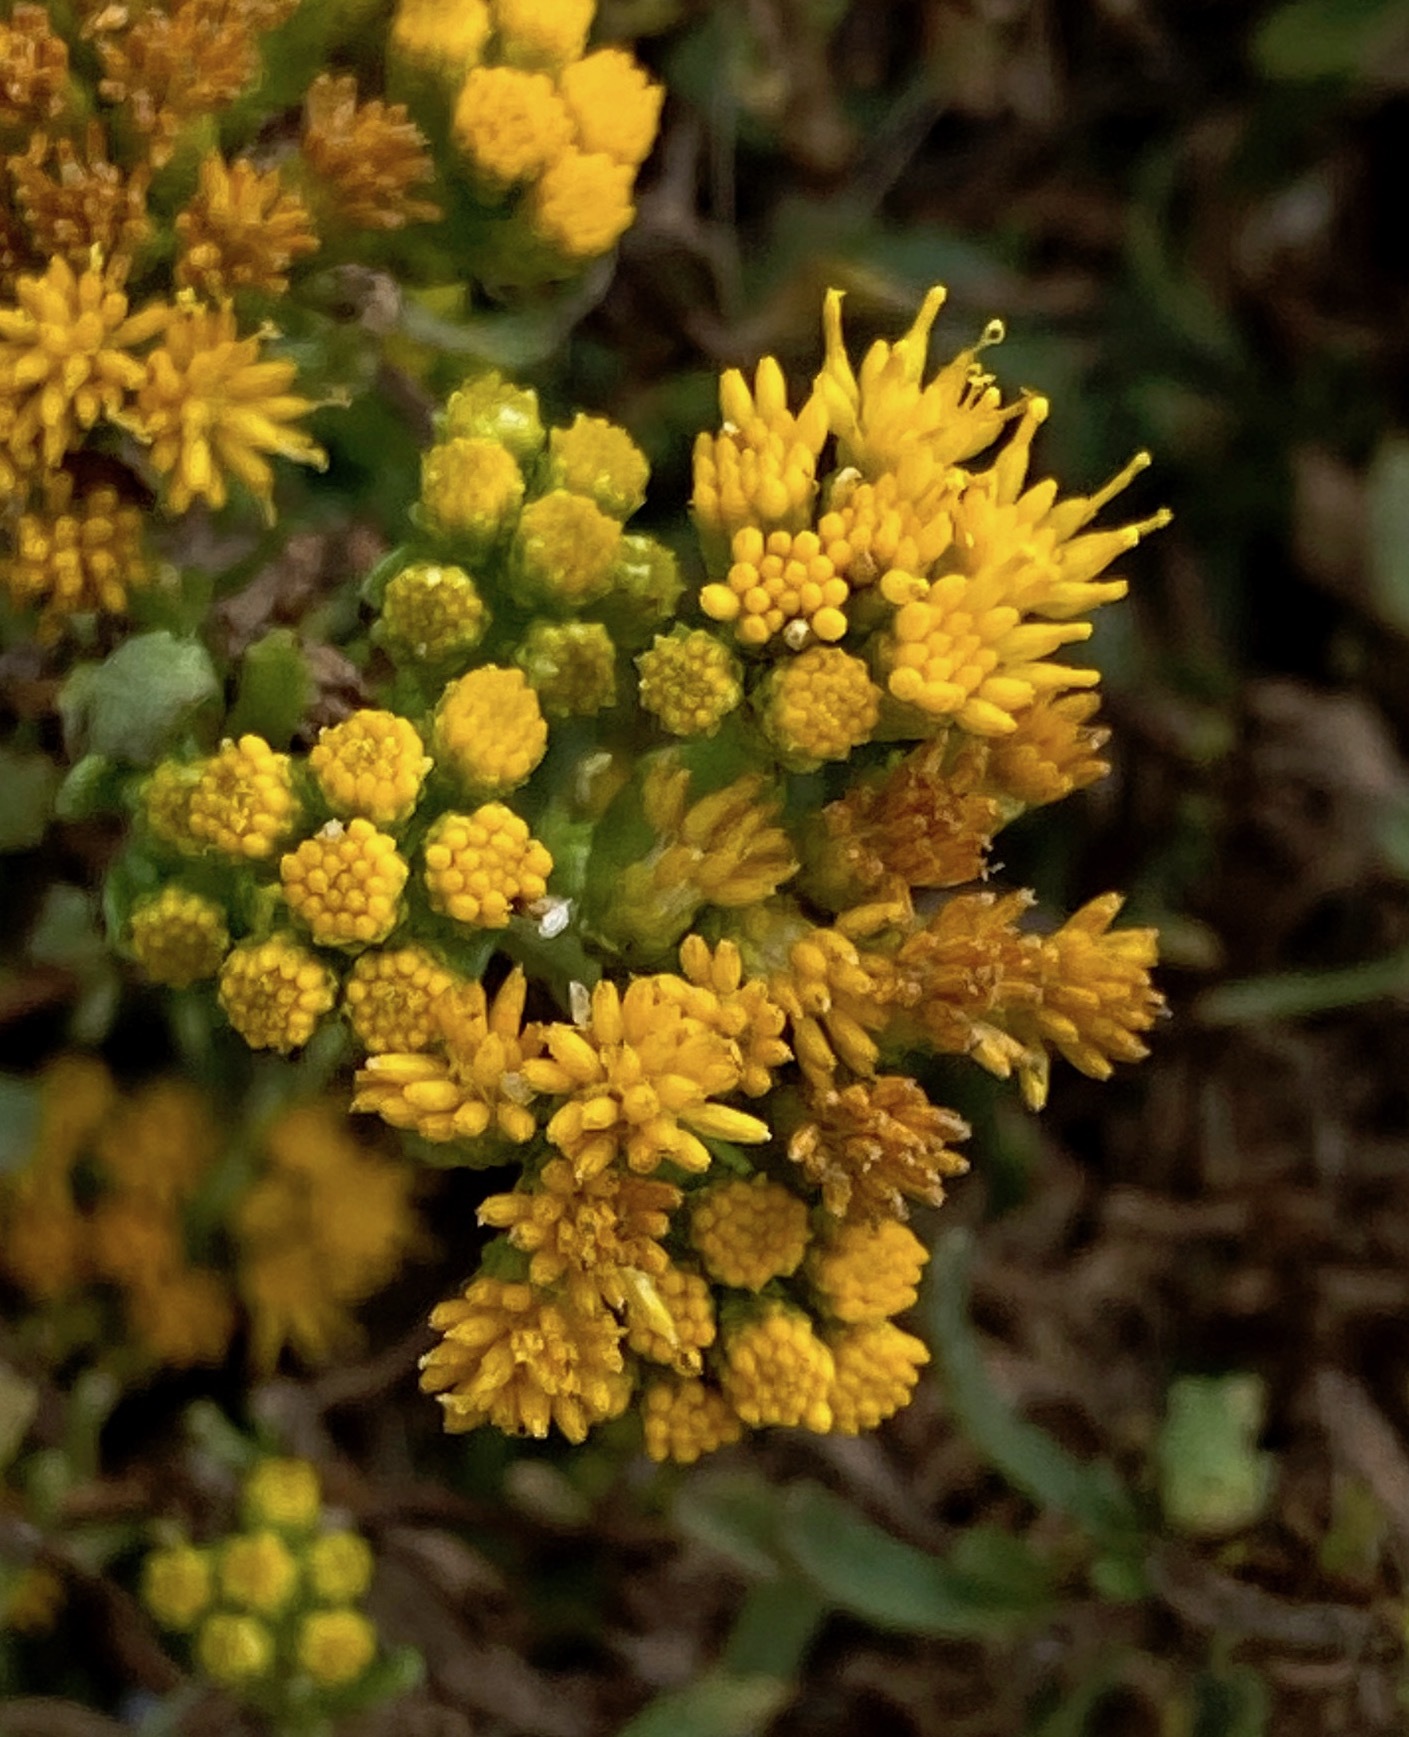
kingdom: Plantae
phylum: Tracheophyta
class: Magnoliopsida
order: Asterales
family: Asteraceae
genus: Isocoma
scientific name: Isocoma menziesii
